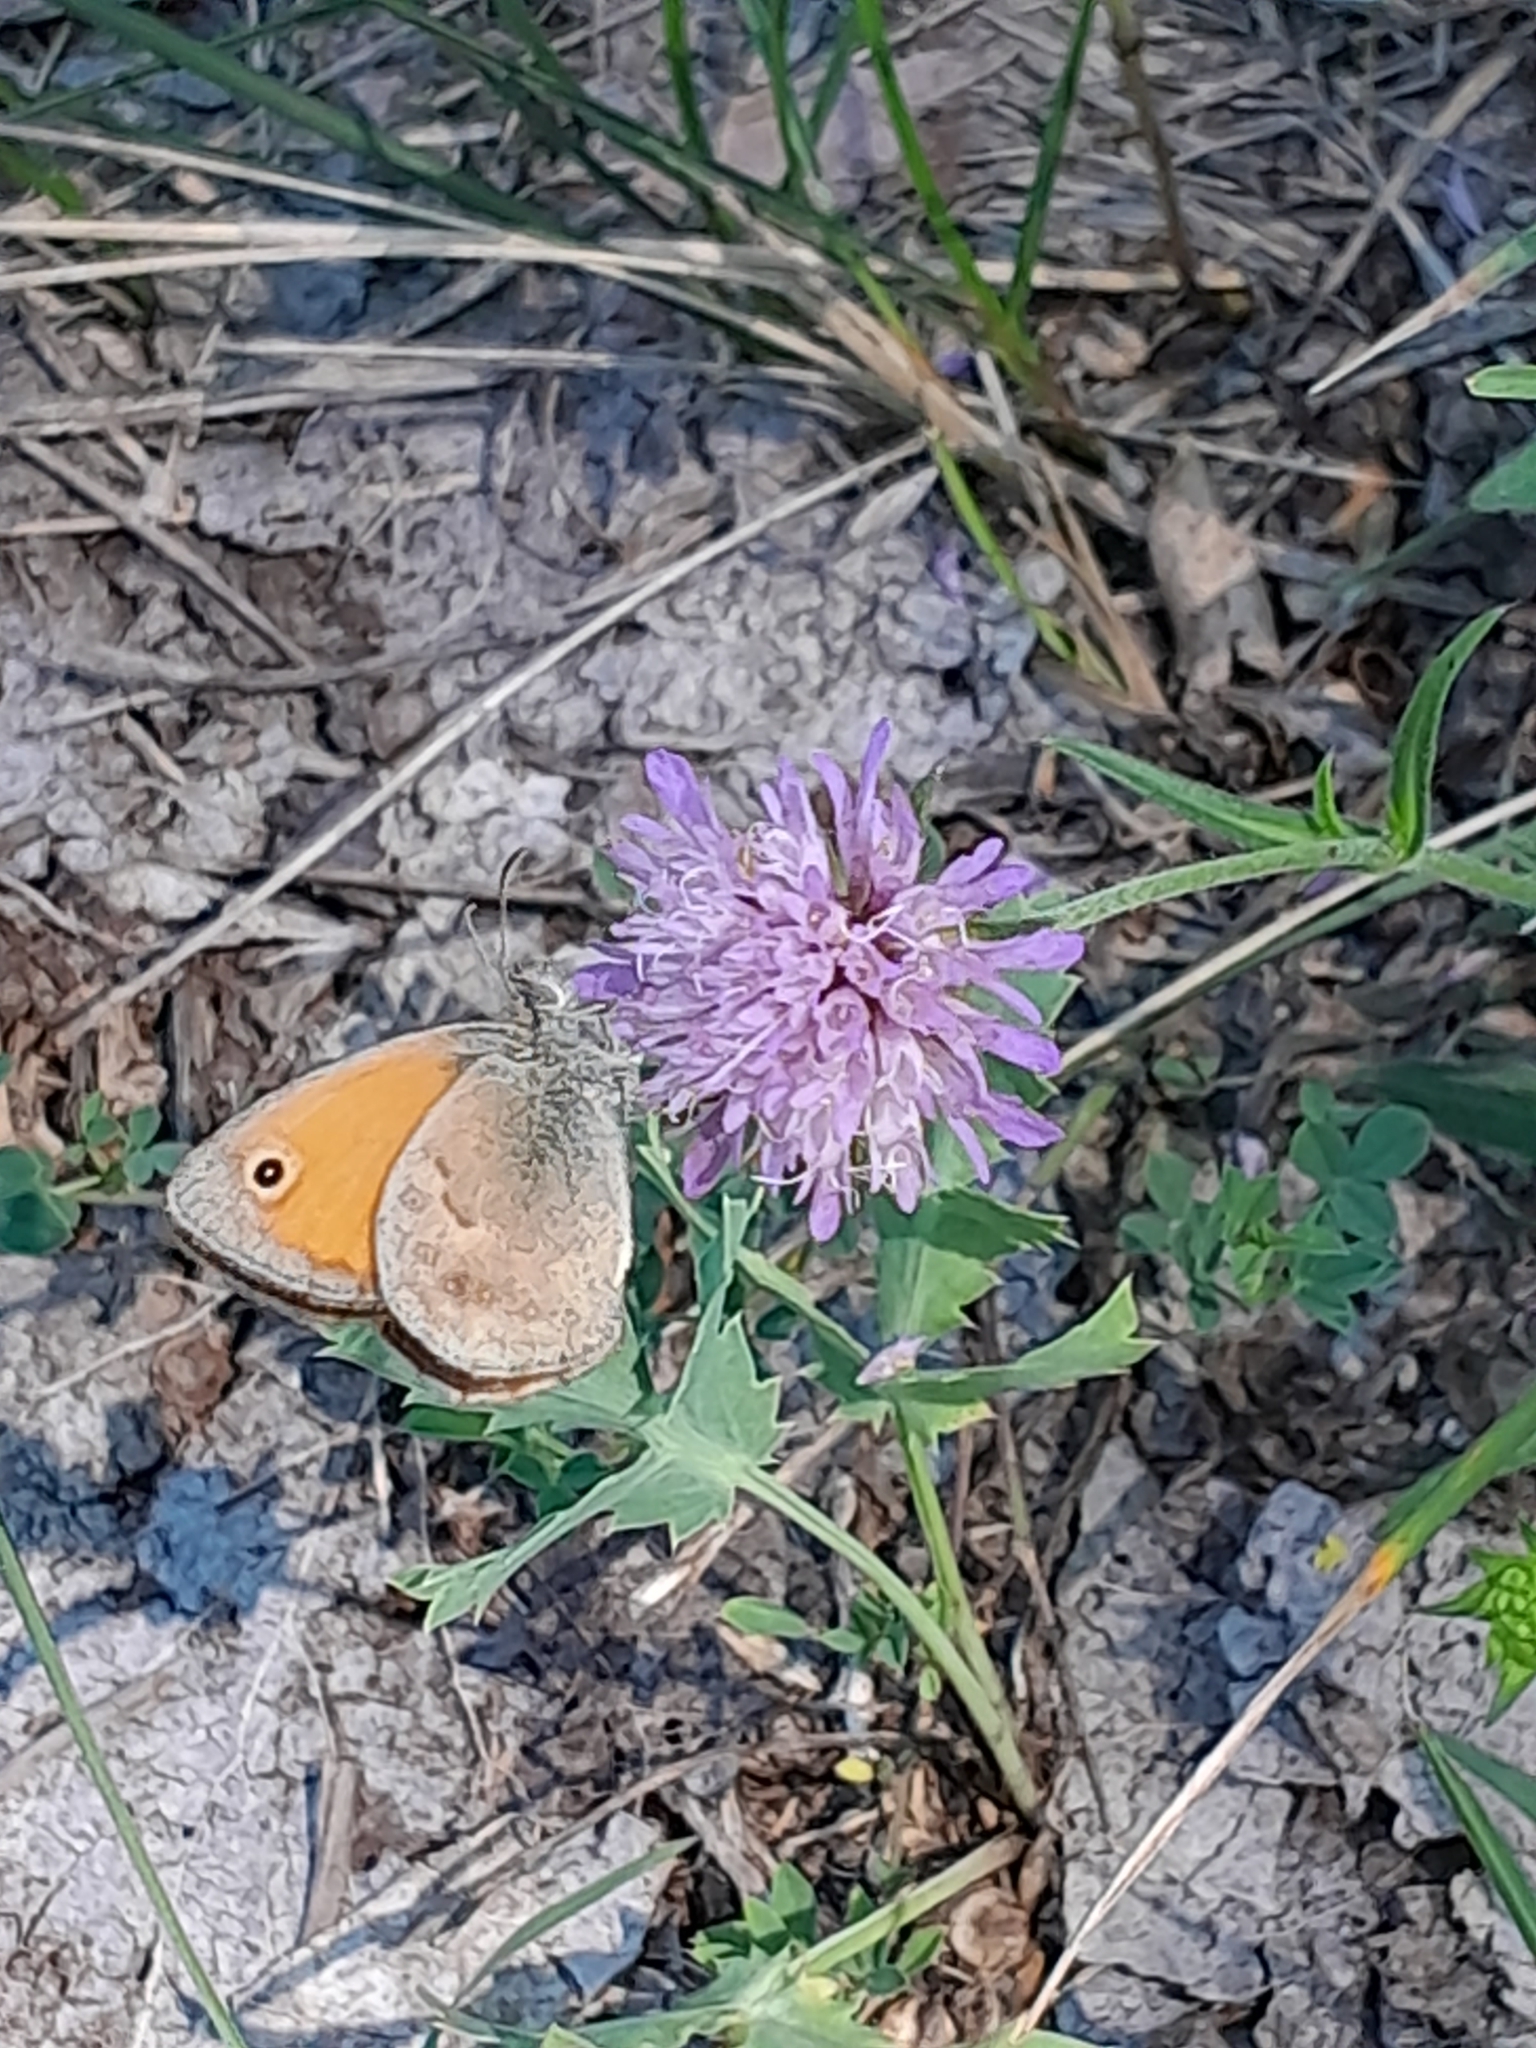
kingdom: Animalia
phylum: Arthropoda
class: Insecta
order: Lepidoptera
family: Nymphalidae
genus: Coenonympha
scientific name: Coenonympha pamphilus
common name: Small heath
